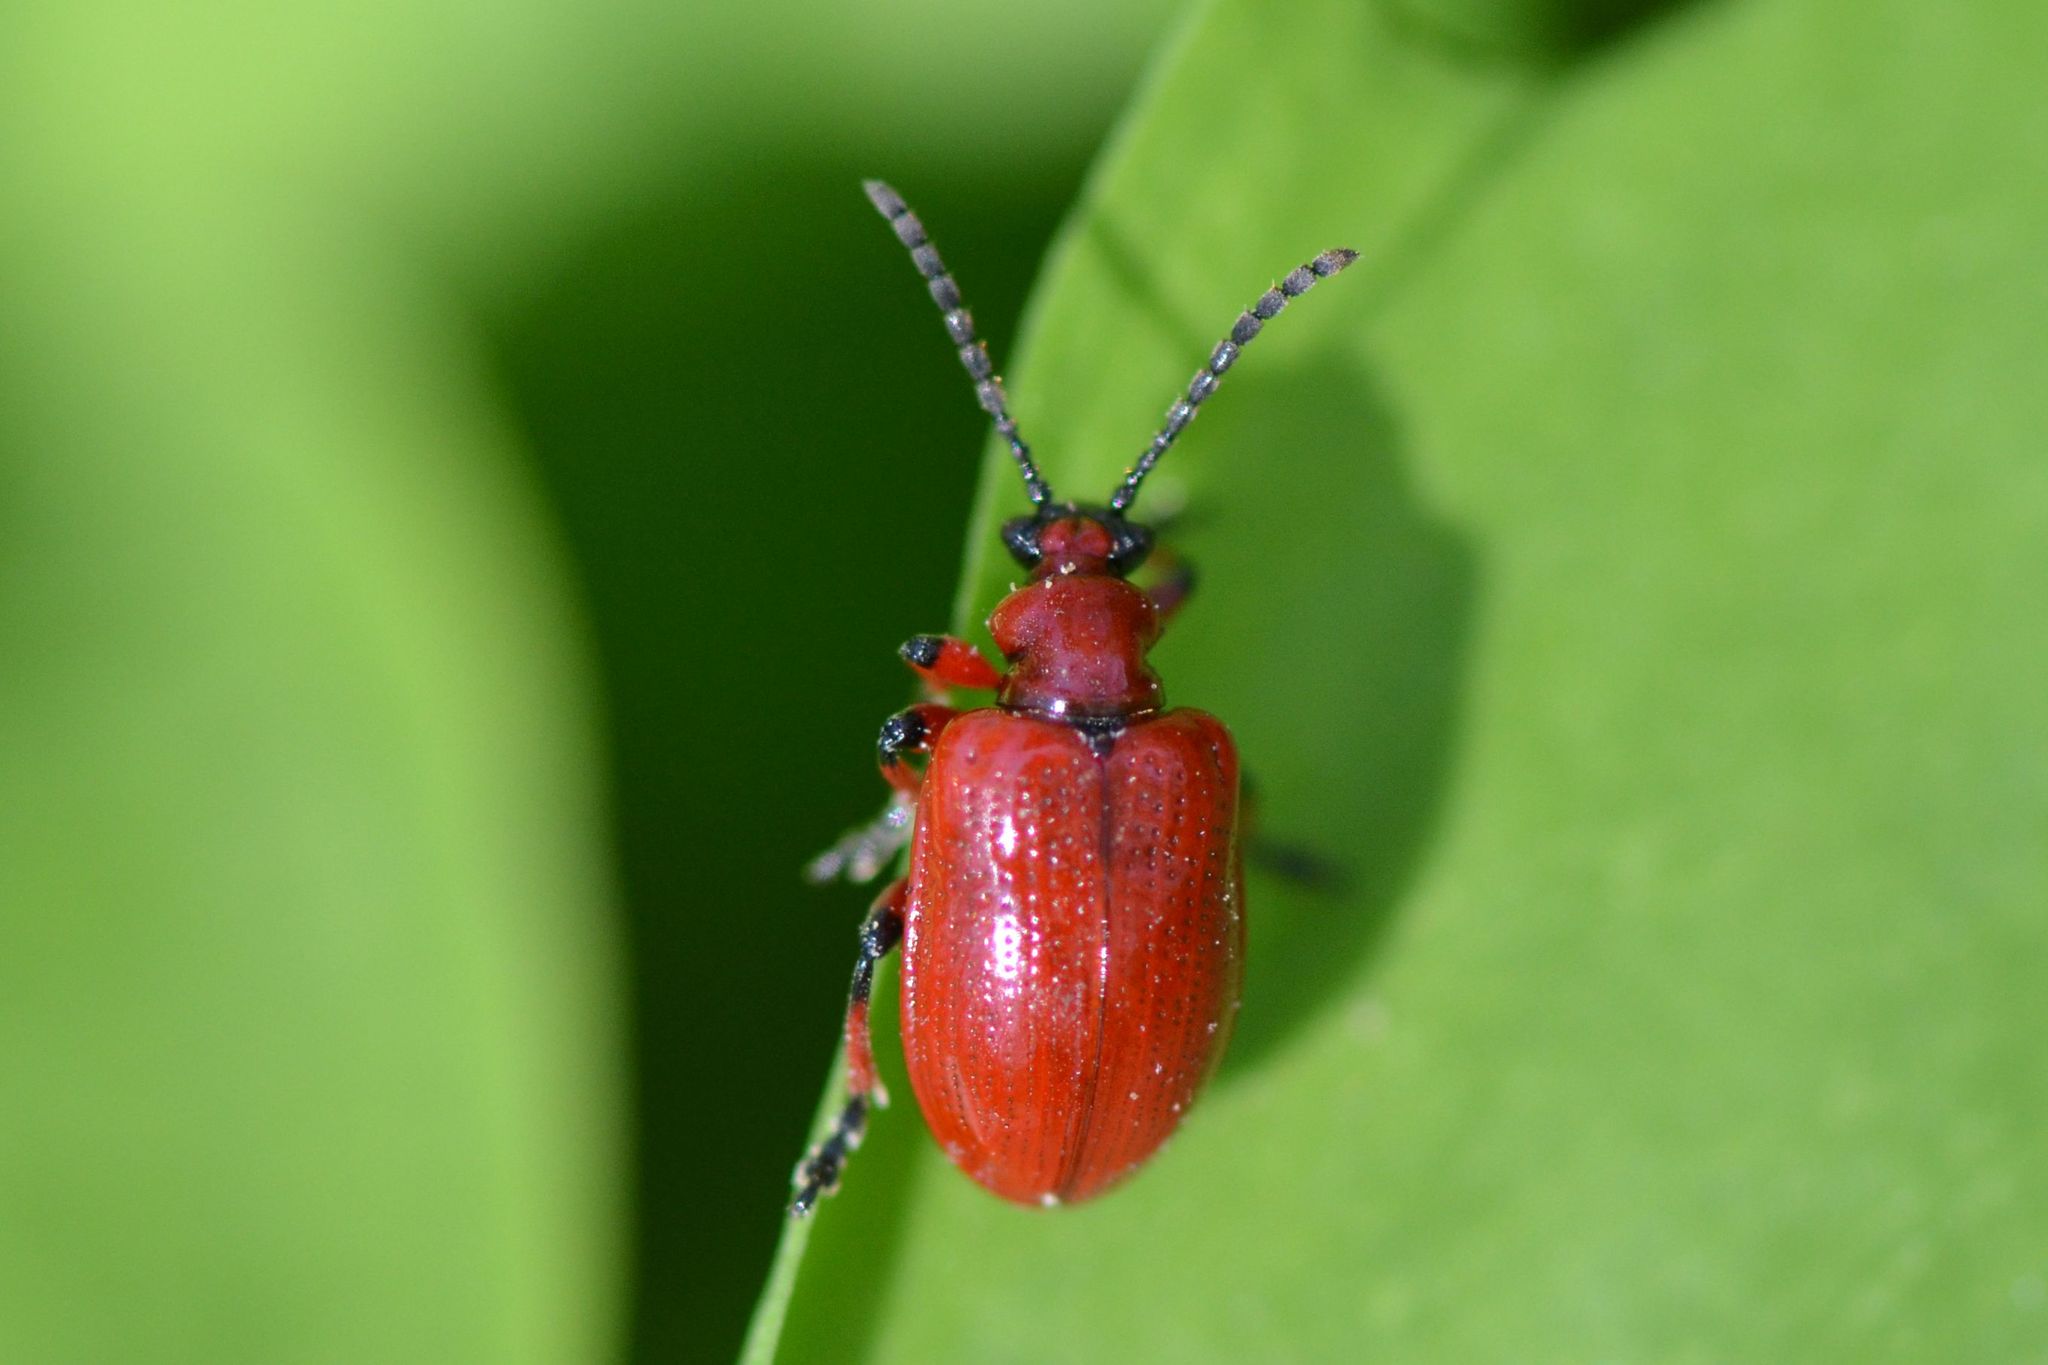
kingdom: Animalia
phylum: Arthropoda
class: Insecta
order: Coleoptera
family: Chrysomelidae
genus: Lilioceris
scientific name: Lilioceris merdigera
